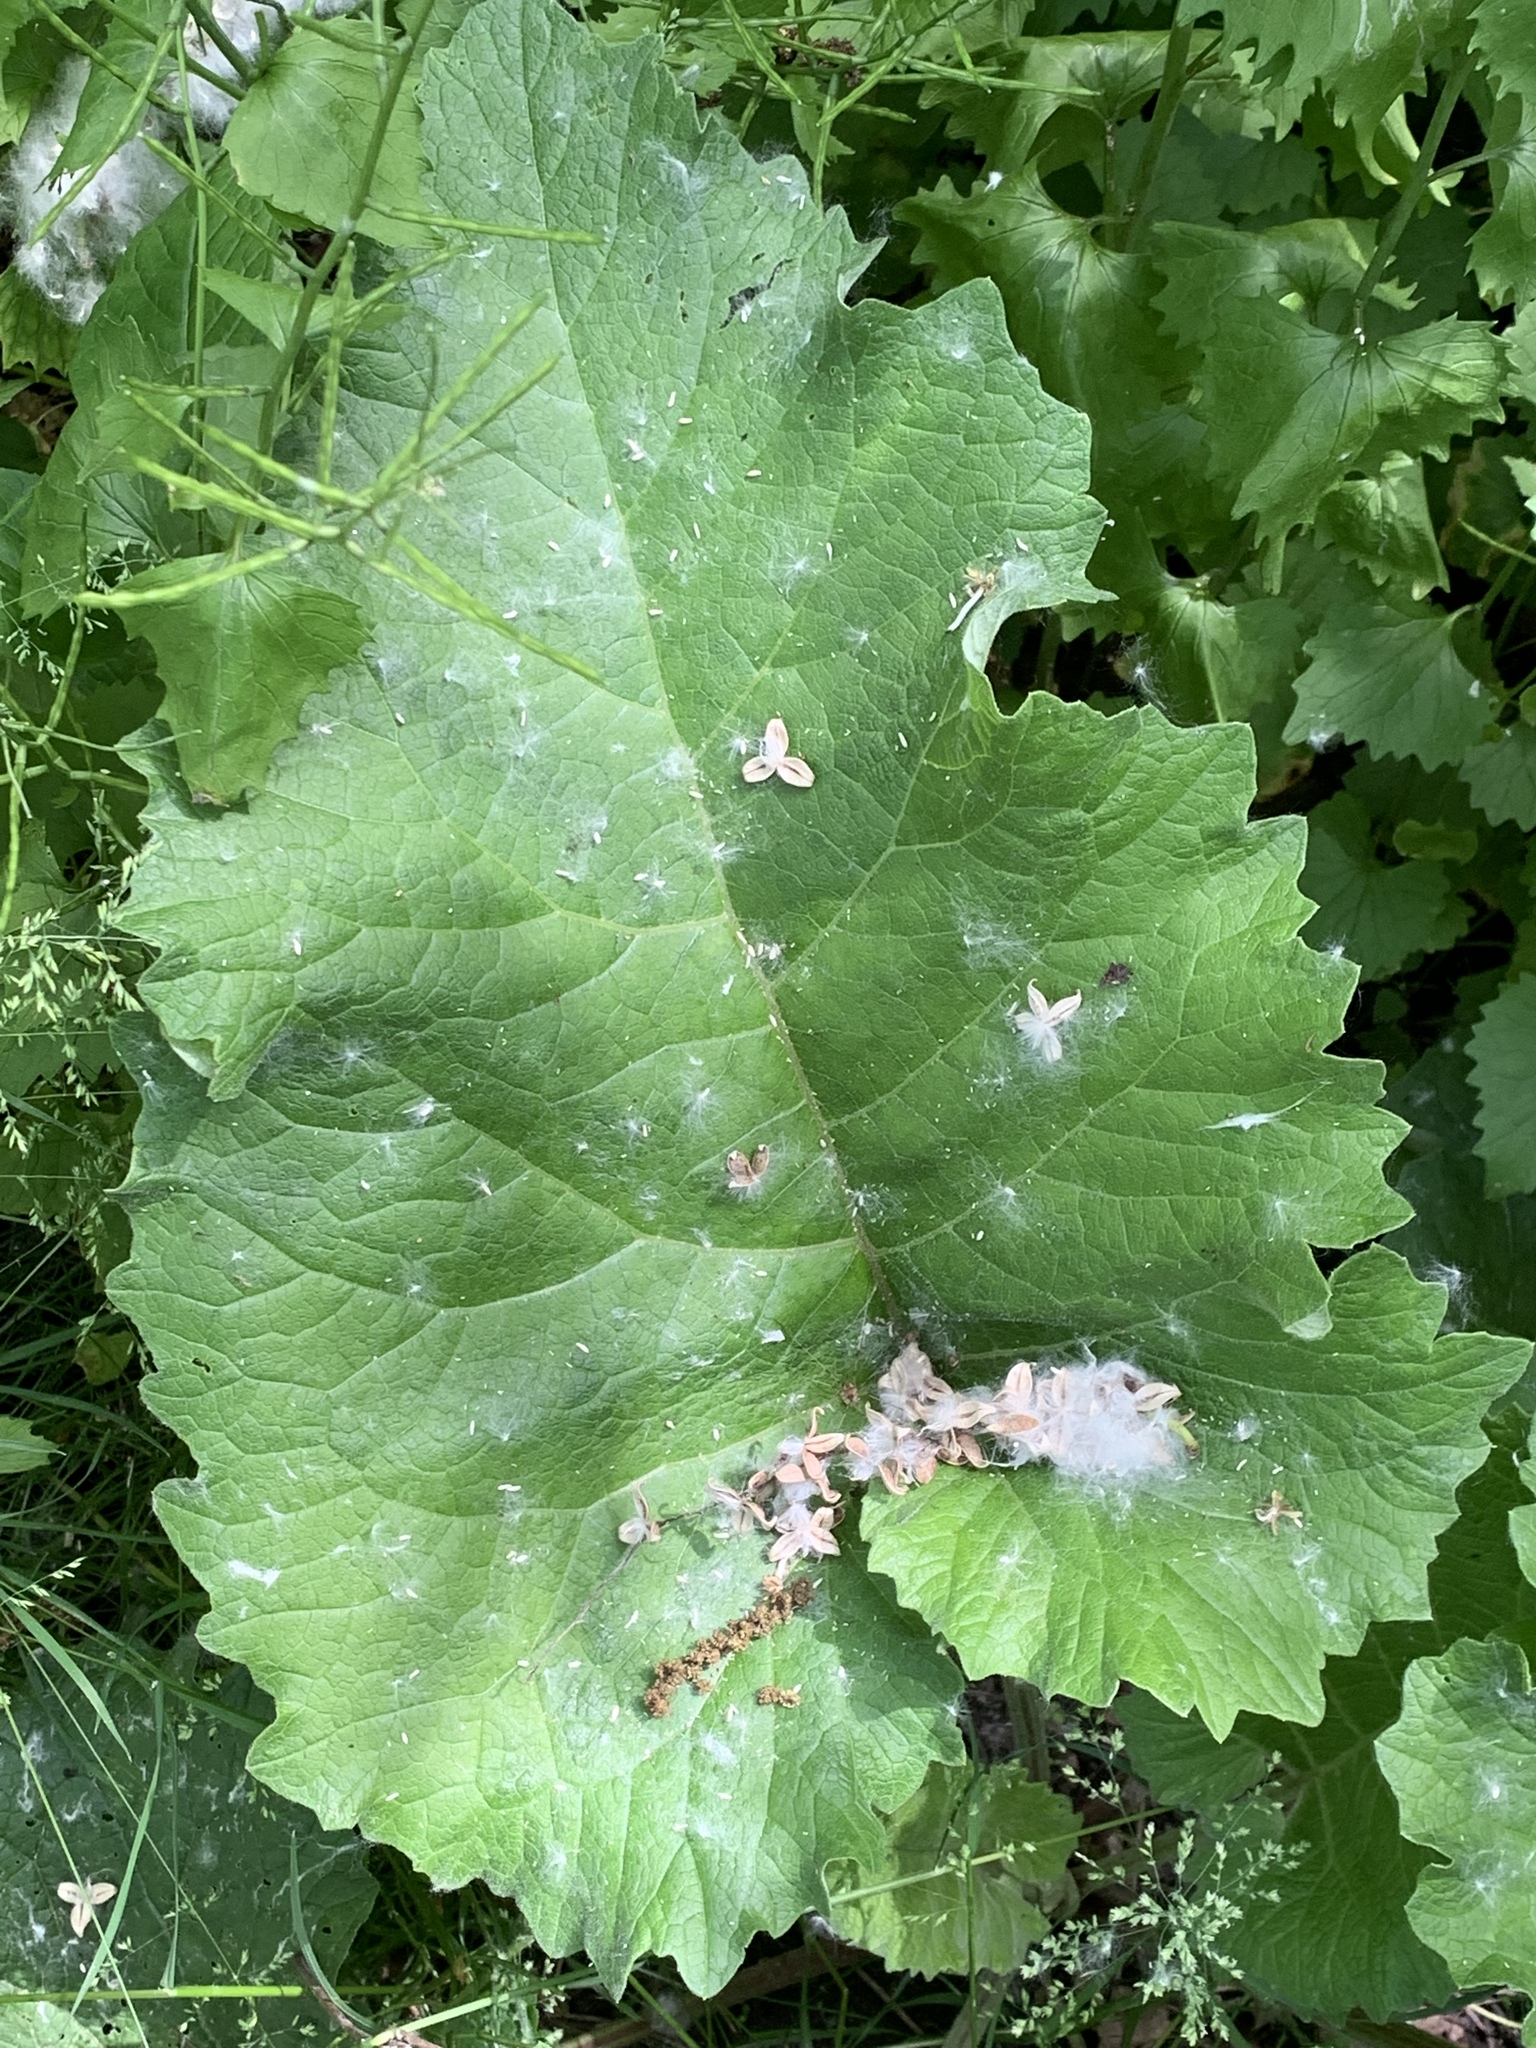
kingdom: Plantae
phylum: Tracheophyta
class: Magnoliopsida
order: Asterales
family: Asteraceae
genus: Arctium
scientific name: Arctium
